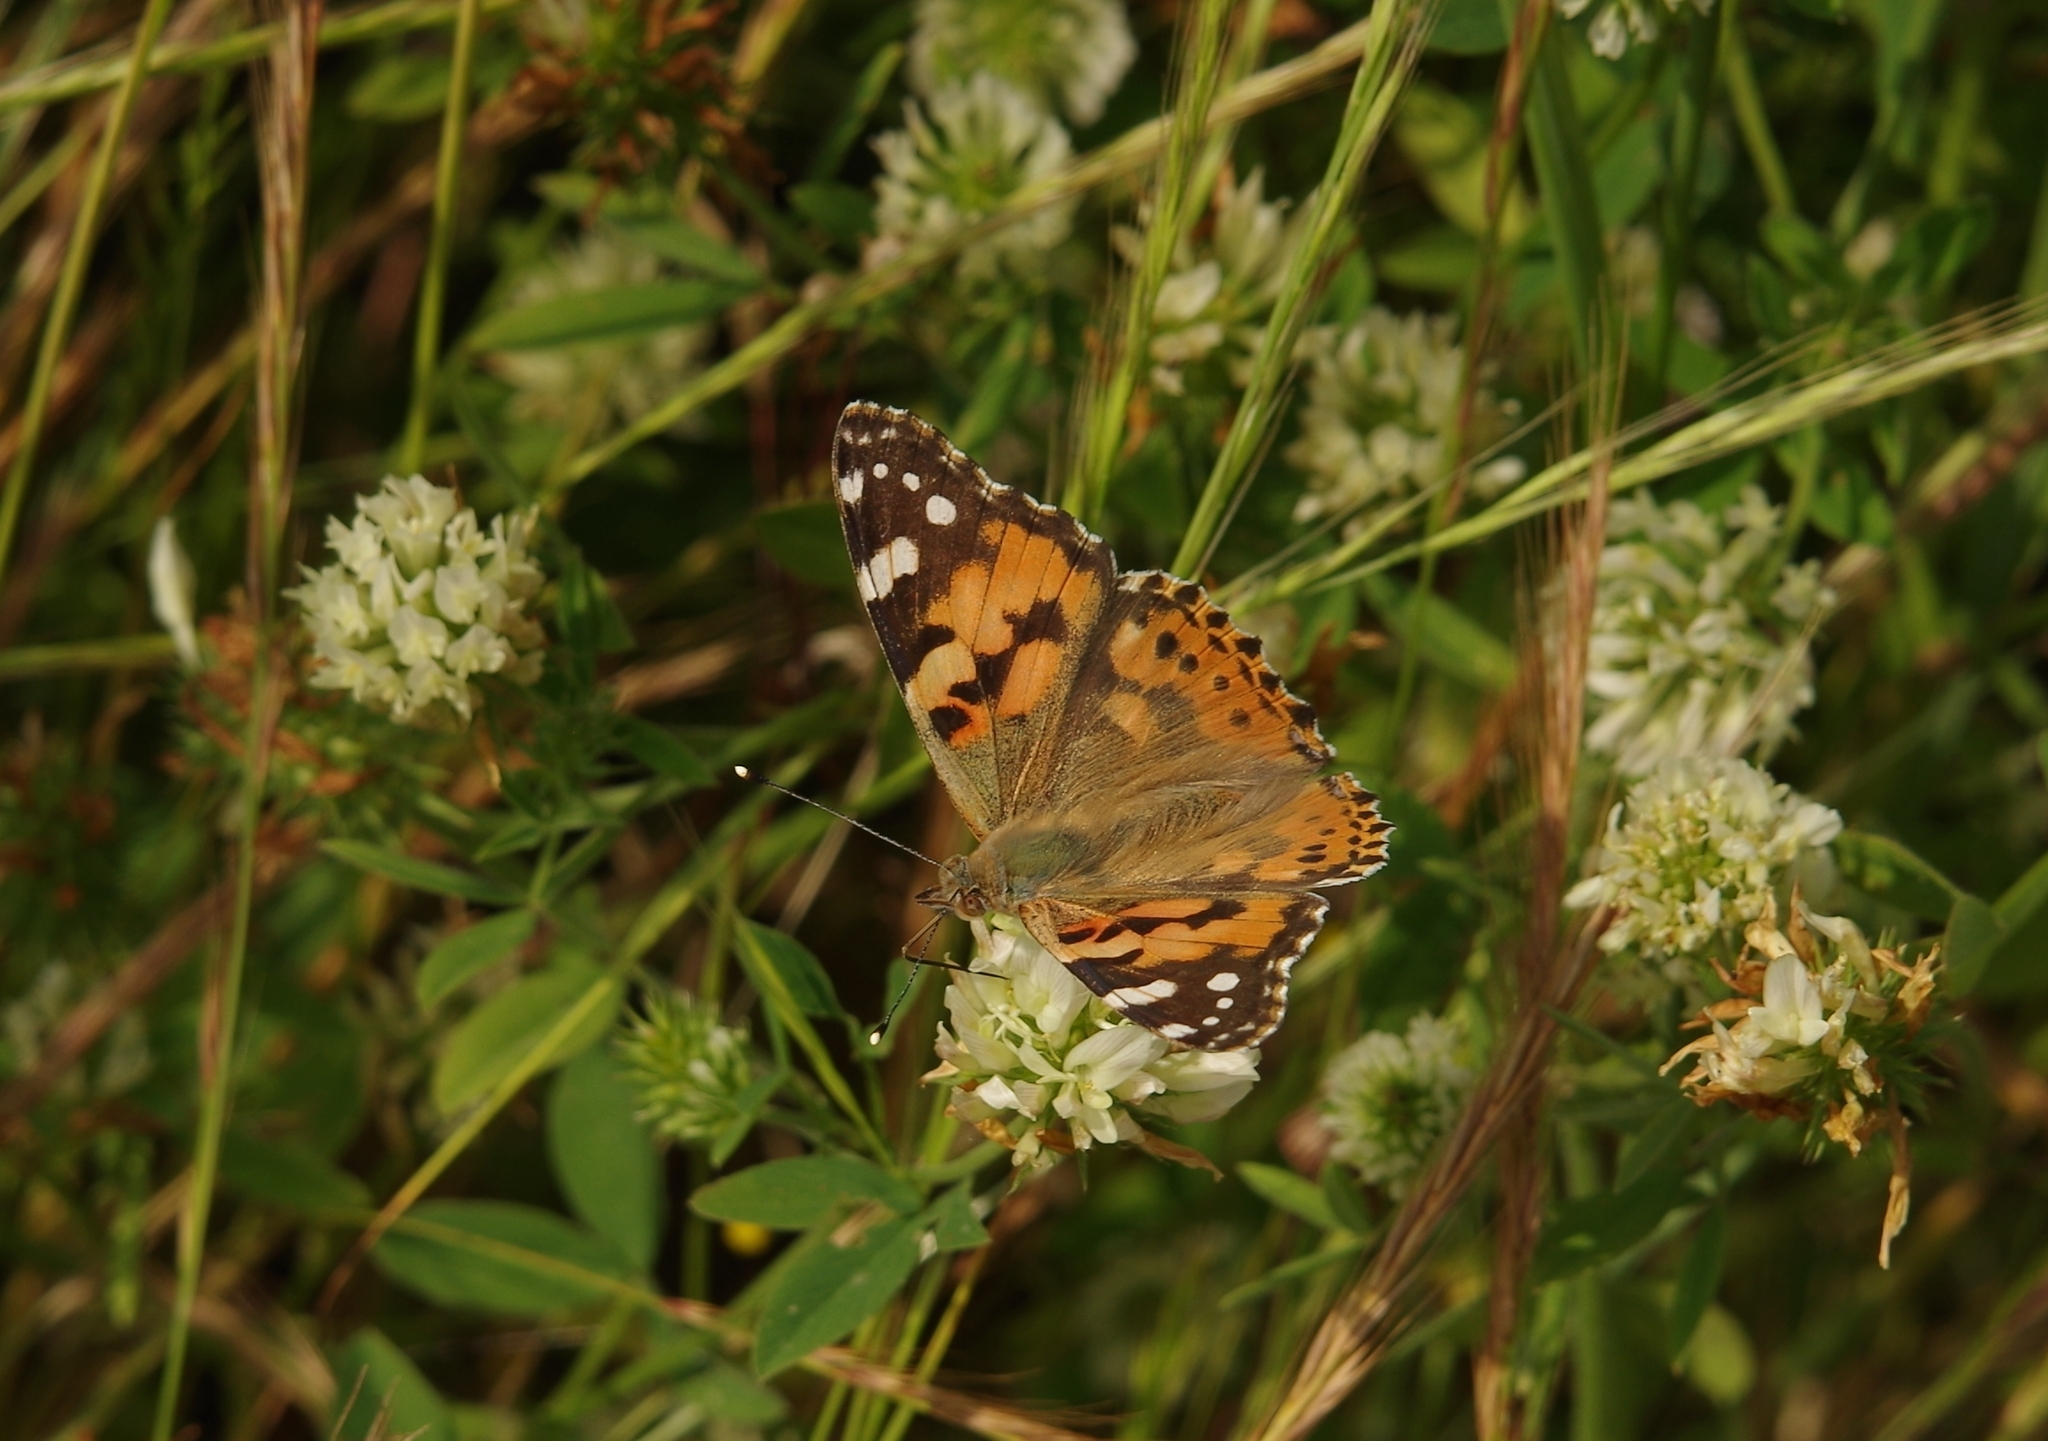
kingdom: Animalia
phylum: Arthropoda
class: Insecta
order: Lepidoptera
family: Nymphalidae
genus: Vanessa
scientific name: Vanessa cardui
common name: Painted lady
